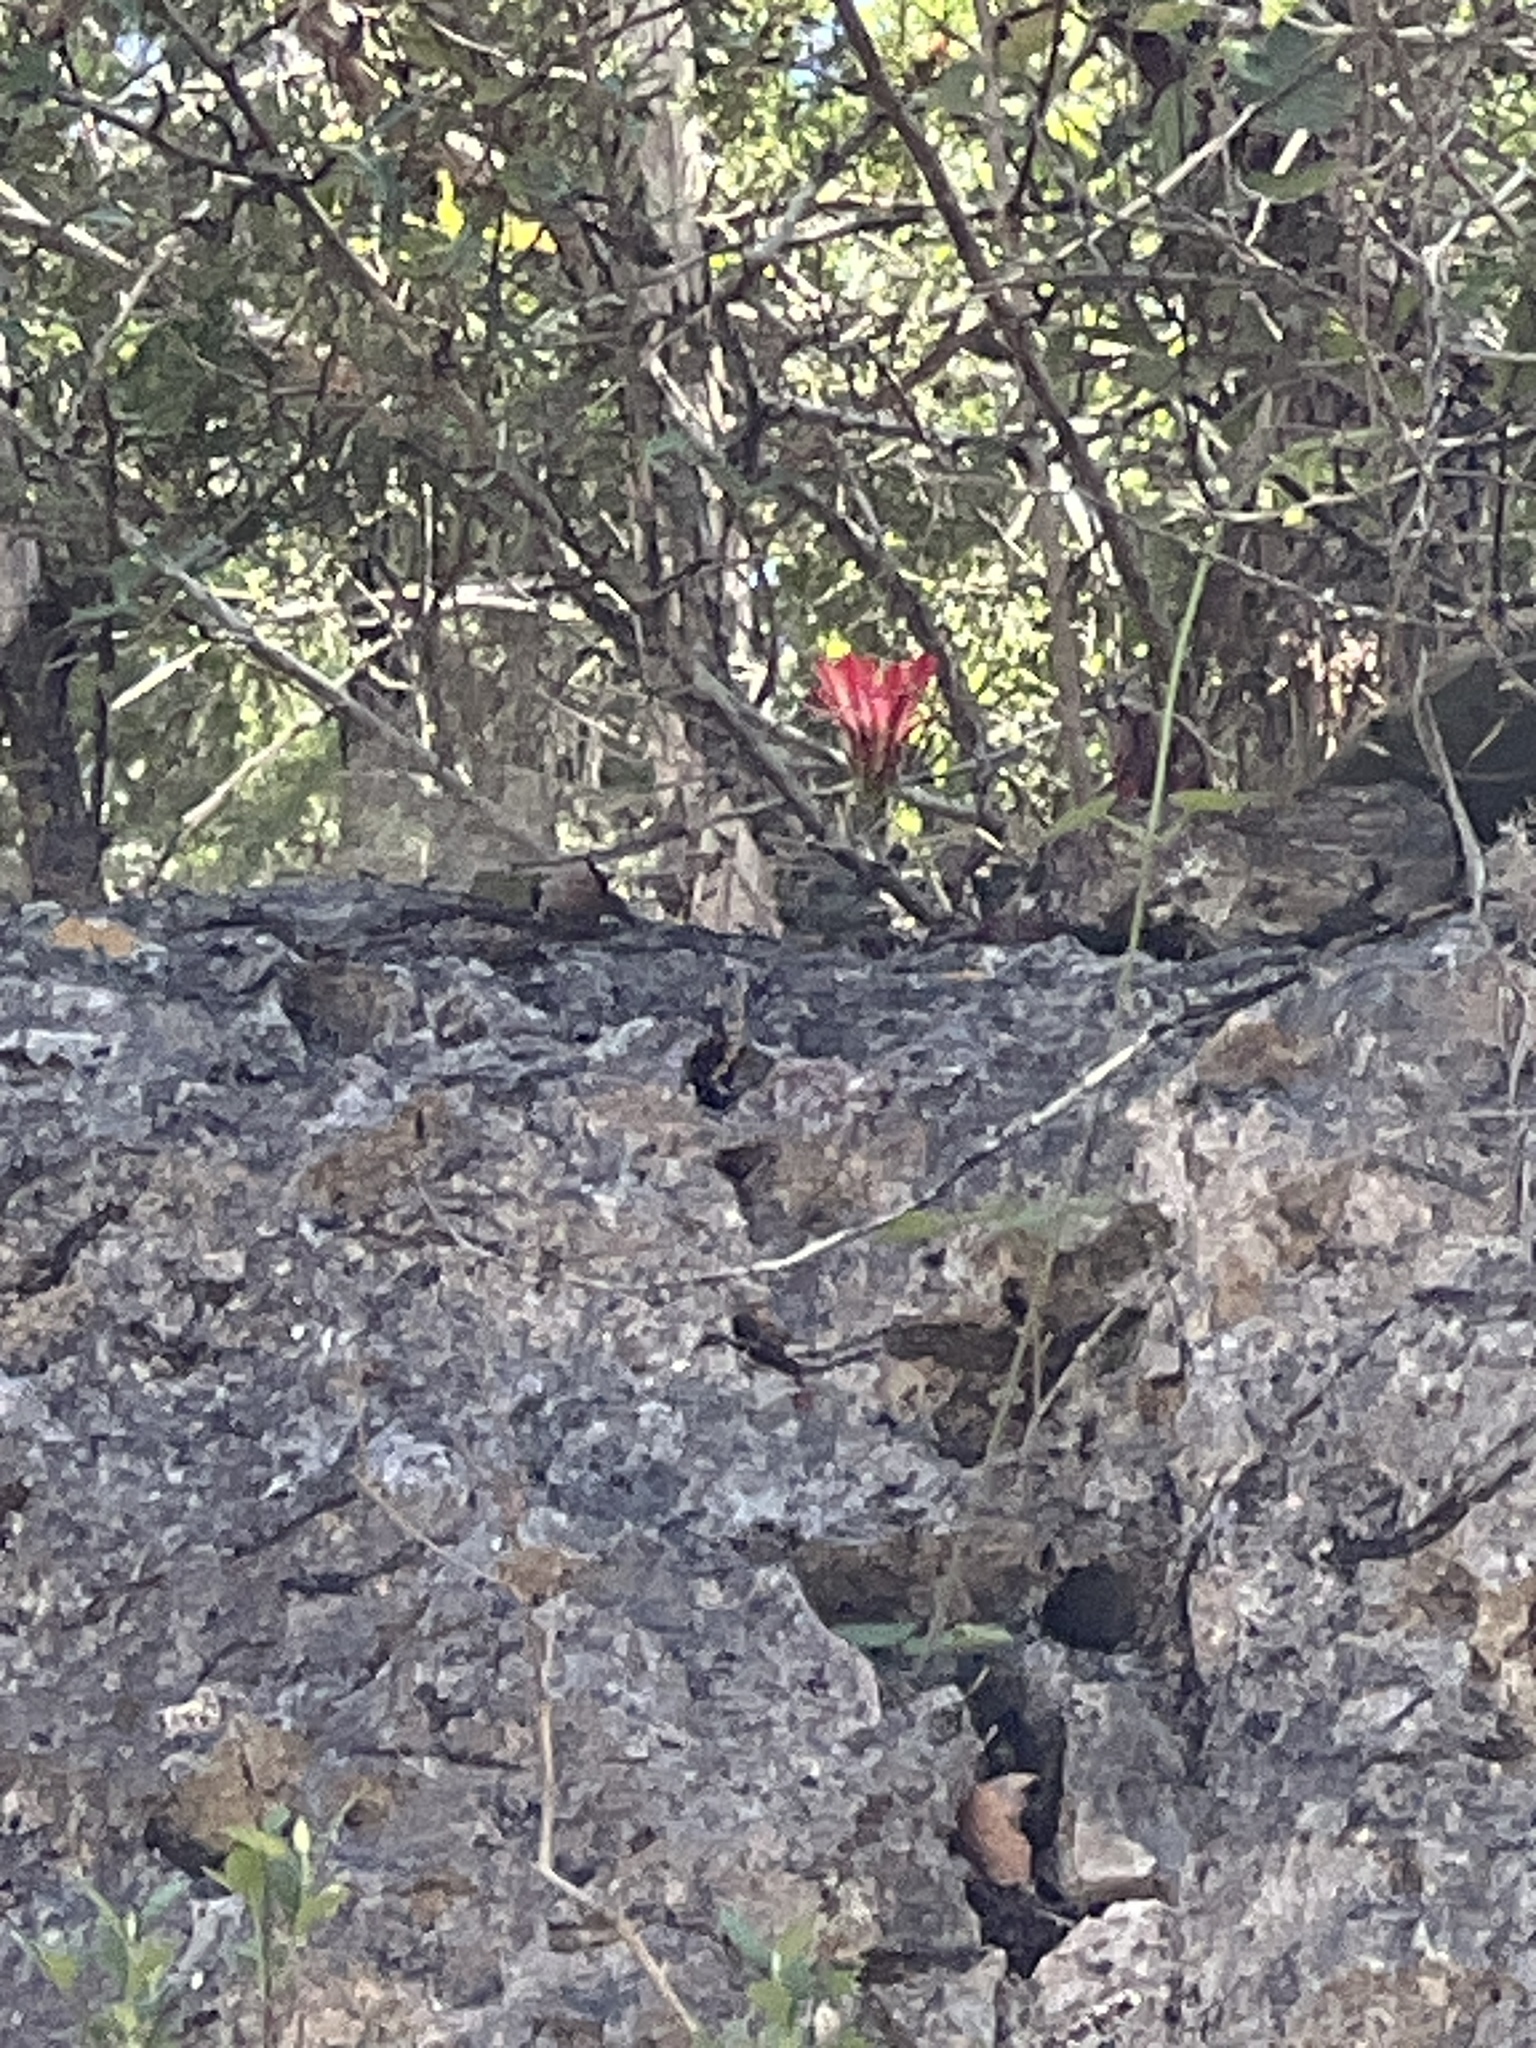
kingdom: Plantae
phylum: Tracheophyta
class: Magnoliopsida
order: Caryophyllales
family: Cactaceae
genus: Echinocereus
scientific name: Echinocereus coccineus
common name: Scarlet hedgehog cactus
